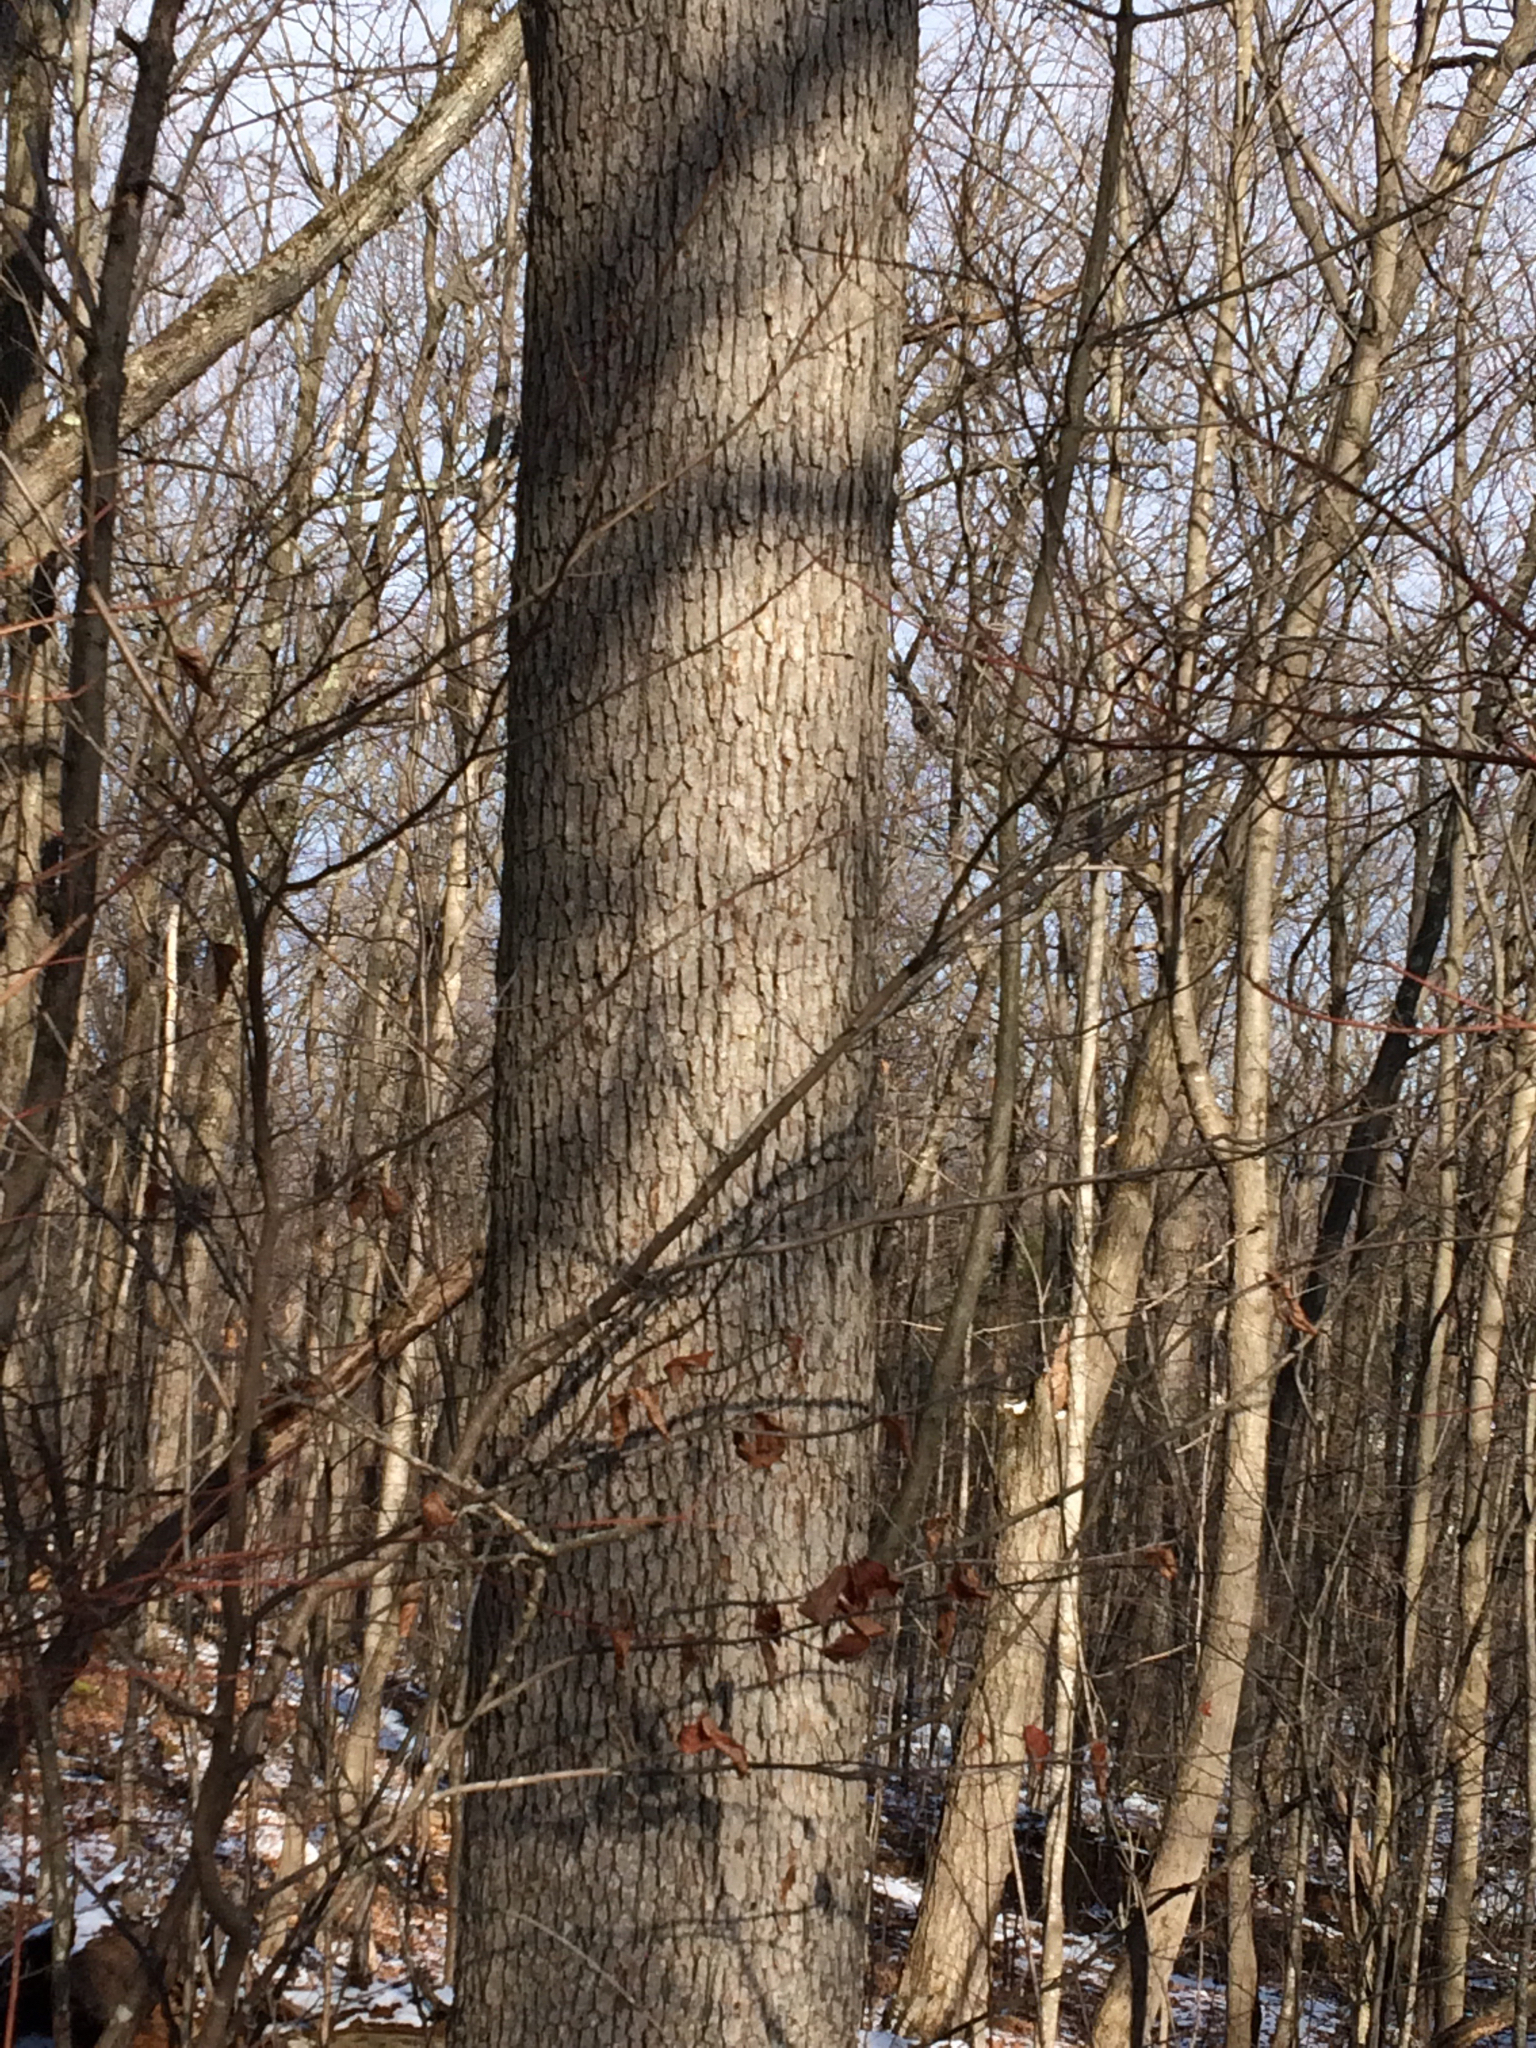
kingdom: Plantae
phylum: Tracheophyta
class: Magnoliopsida
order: Fagales
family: Fagaceae
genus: Quercus
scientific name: Quercus alba
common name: White oak
